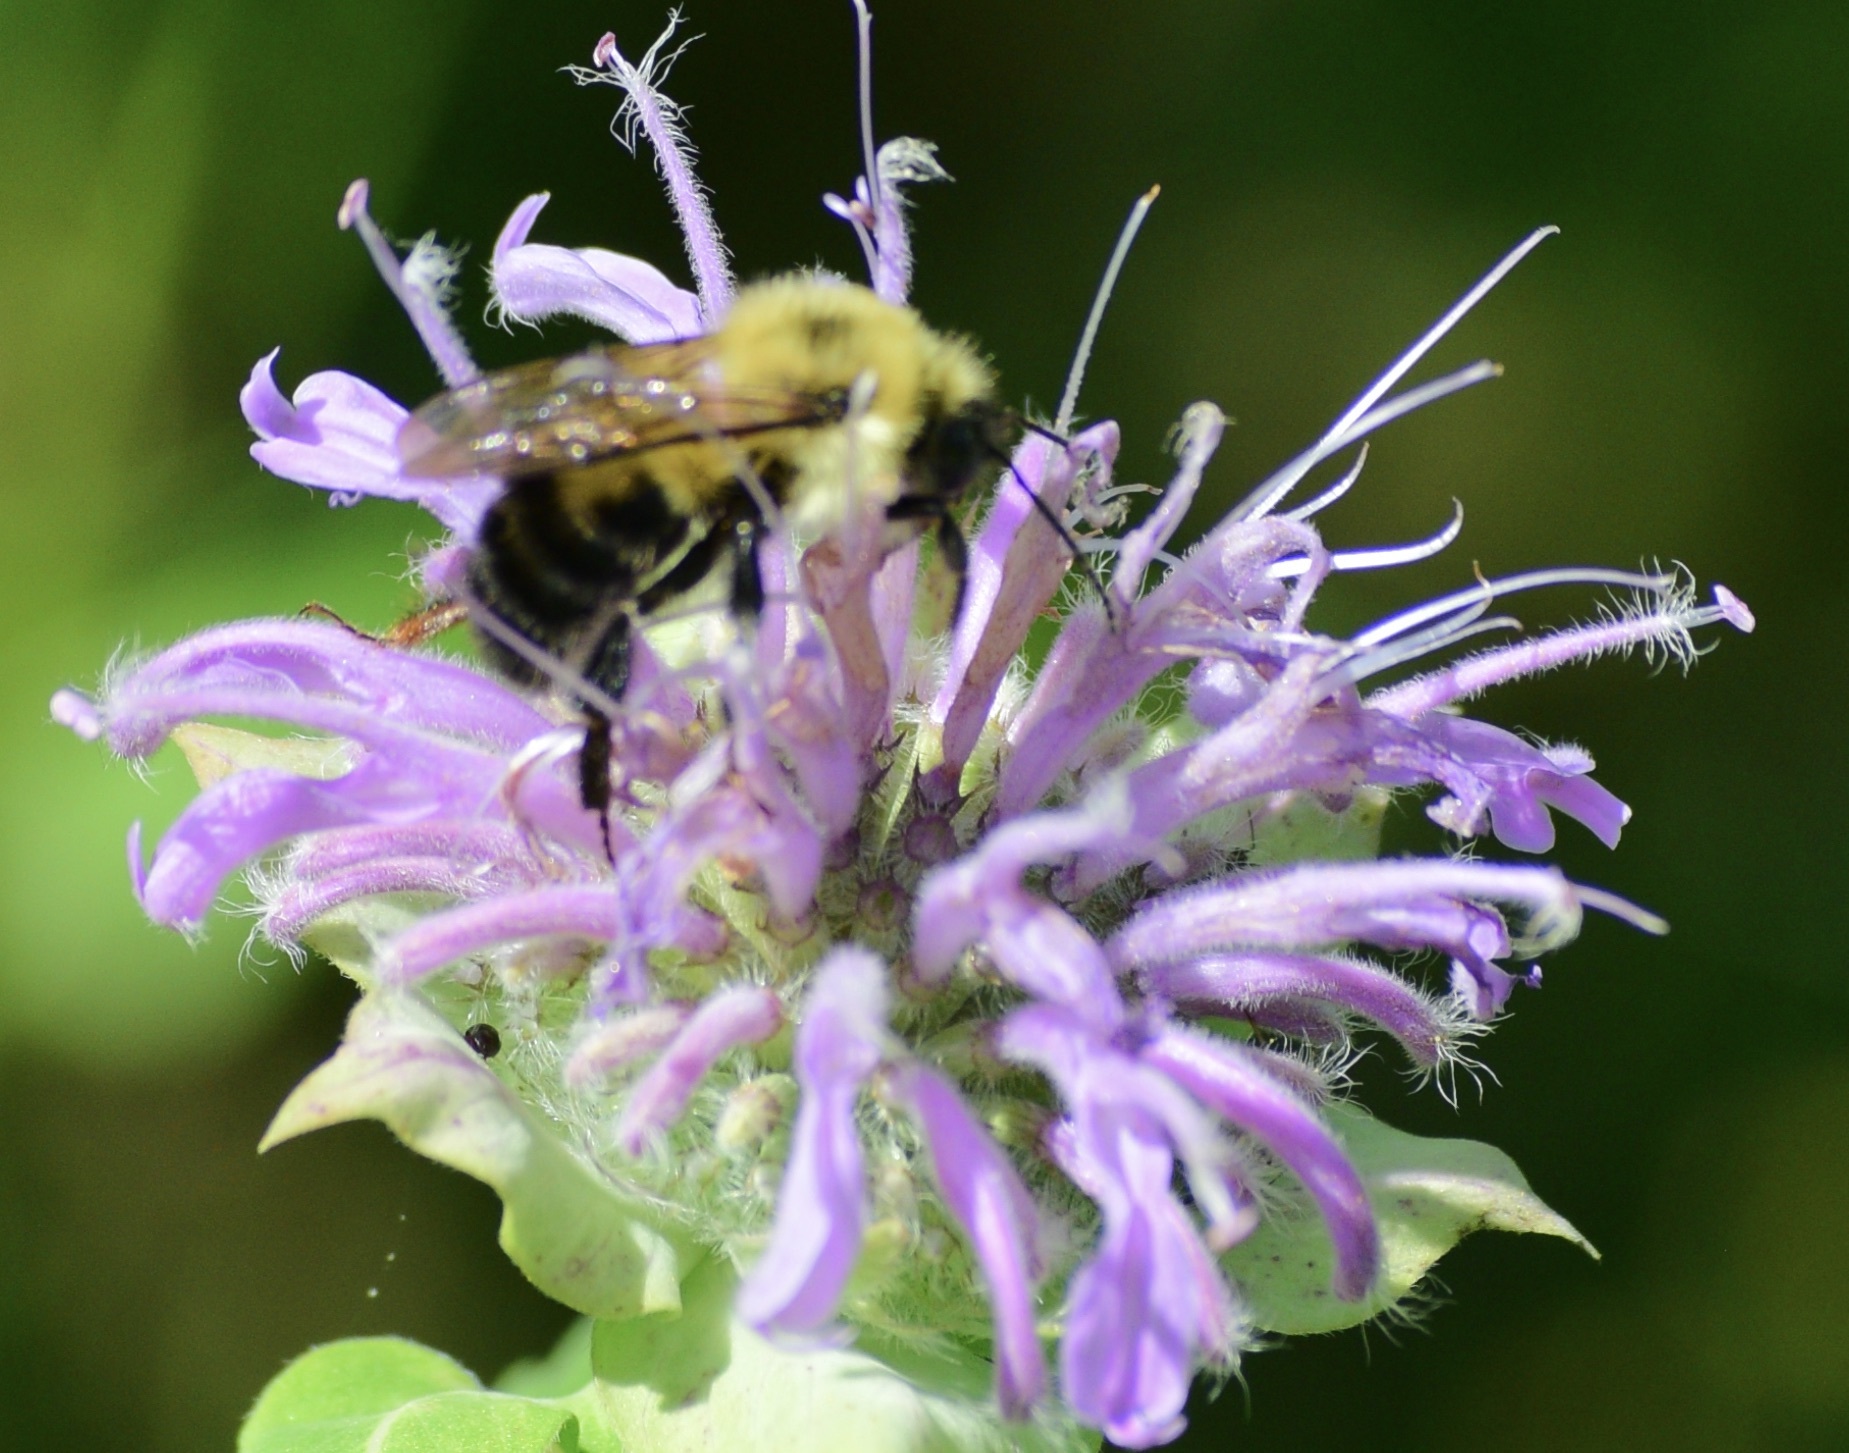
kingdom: Animalia
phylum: Arthropoda
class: Insecta
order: Hymenoptera
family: Apidae
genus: Bombus
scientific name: Bombus bimaculatus
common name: Two-spotted bumble bee
